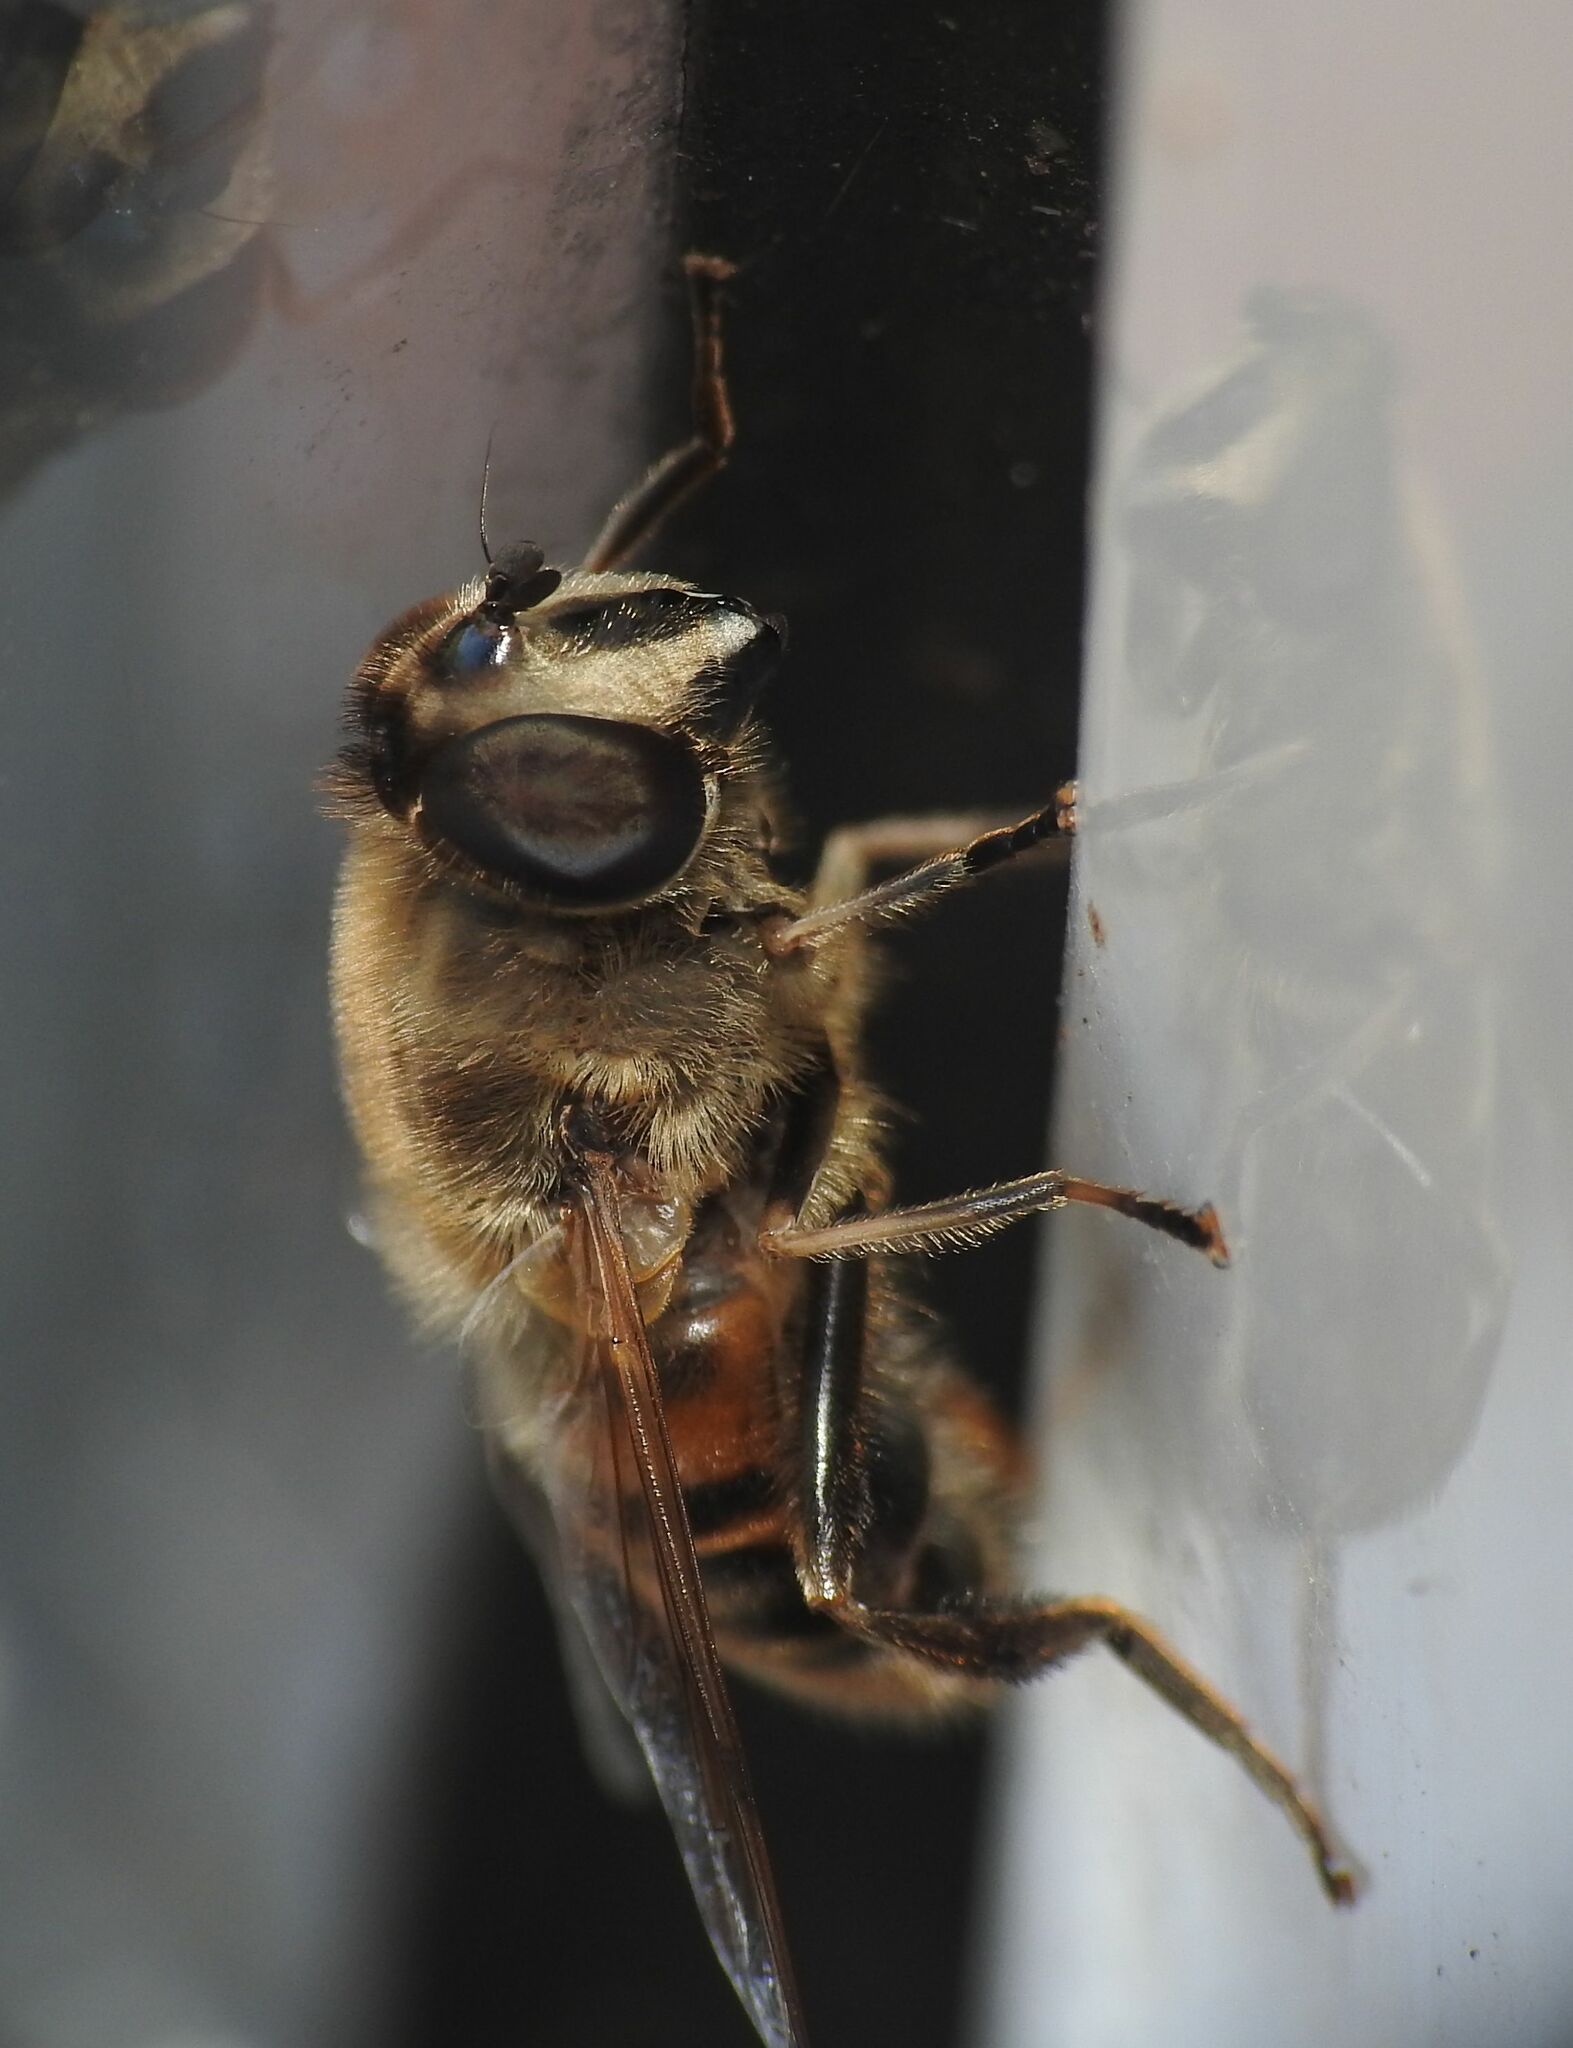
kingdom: Animalia
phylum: Arthropoda
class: Insecta
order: Diptera
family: Syrphidae
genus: Eristalis
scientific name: Eristalis tenax
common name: Drone fly
